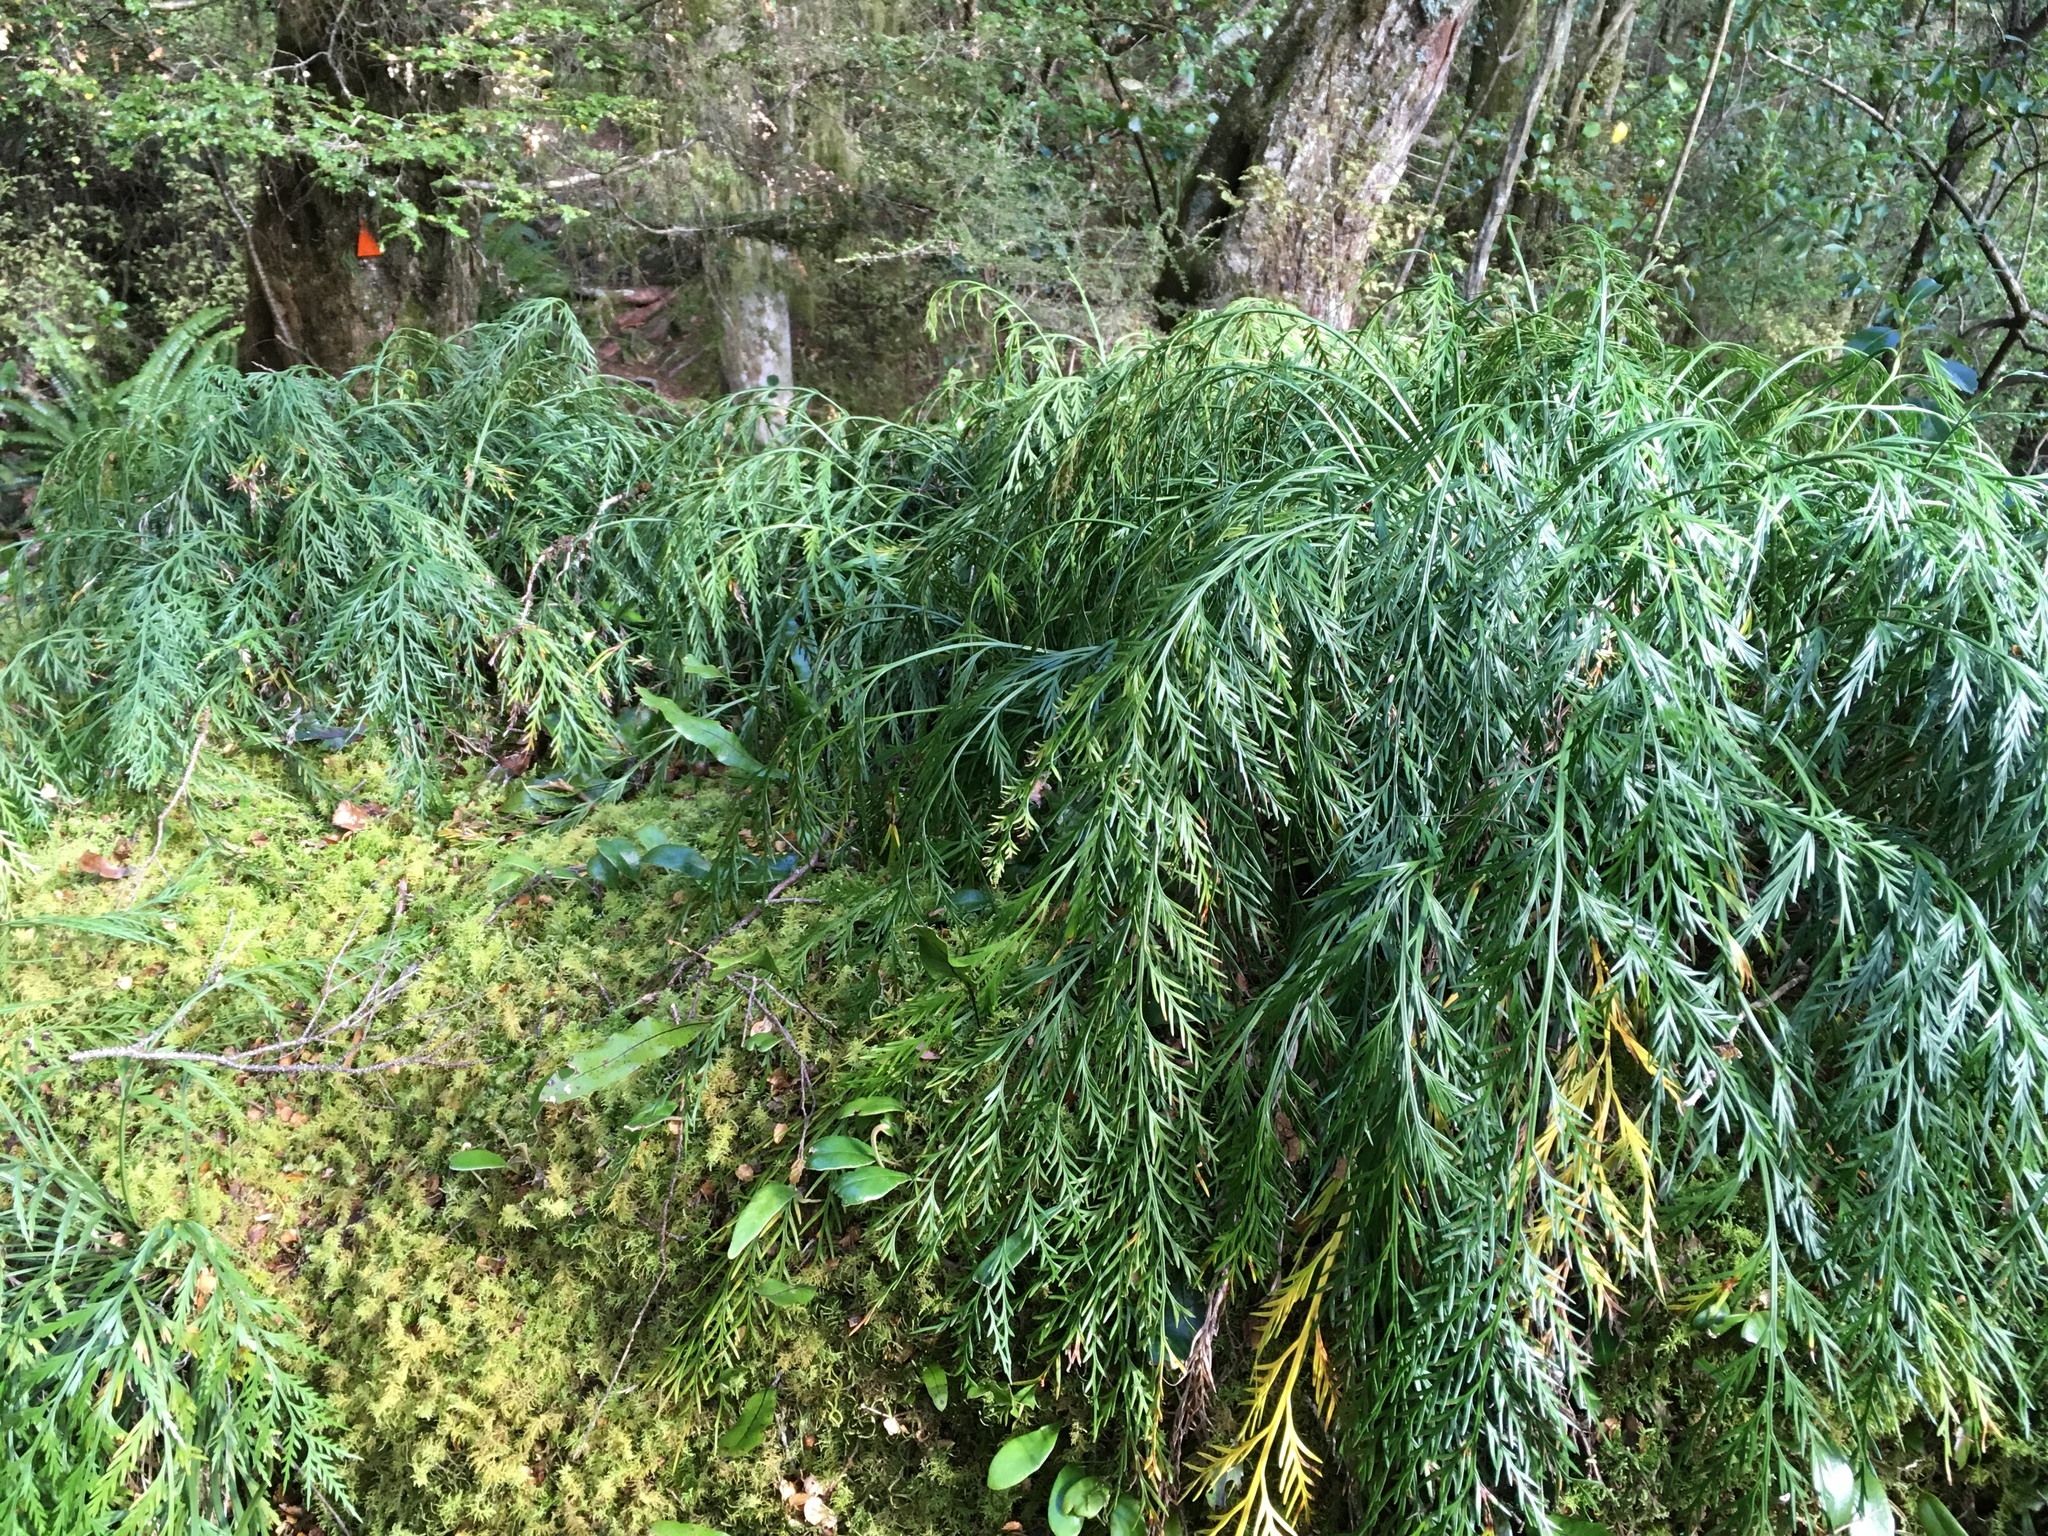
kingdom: Plantae
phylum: Tracheophyta
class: Polypodiopsida
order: Polypodiales
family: Aspleniaceae
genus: Asplenium
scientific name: Asplenium flaccidum
